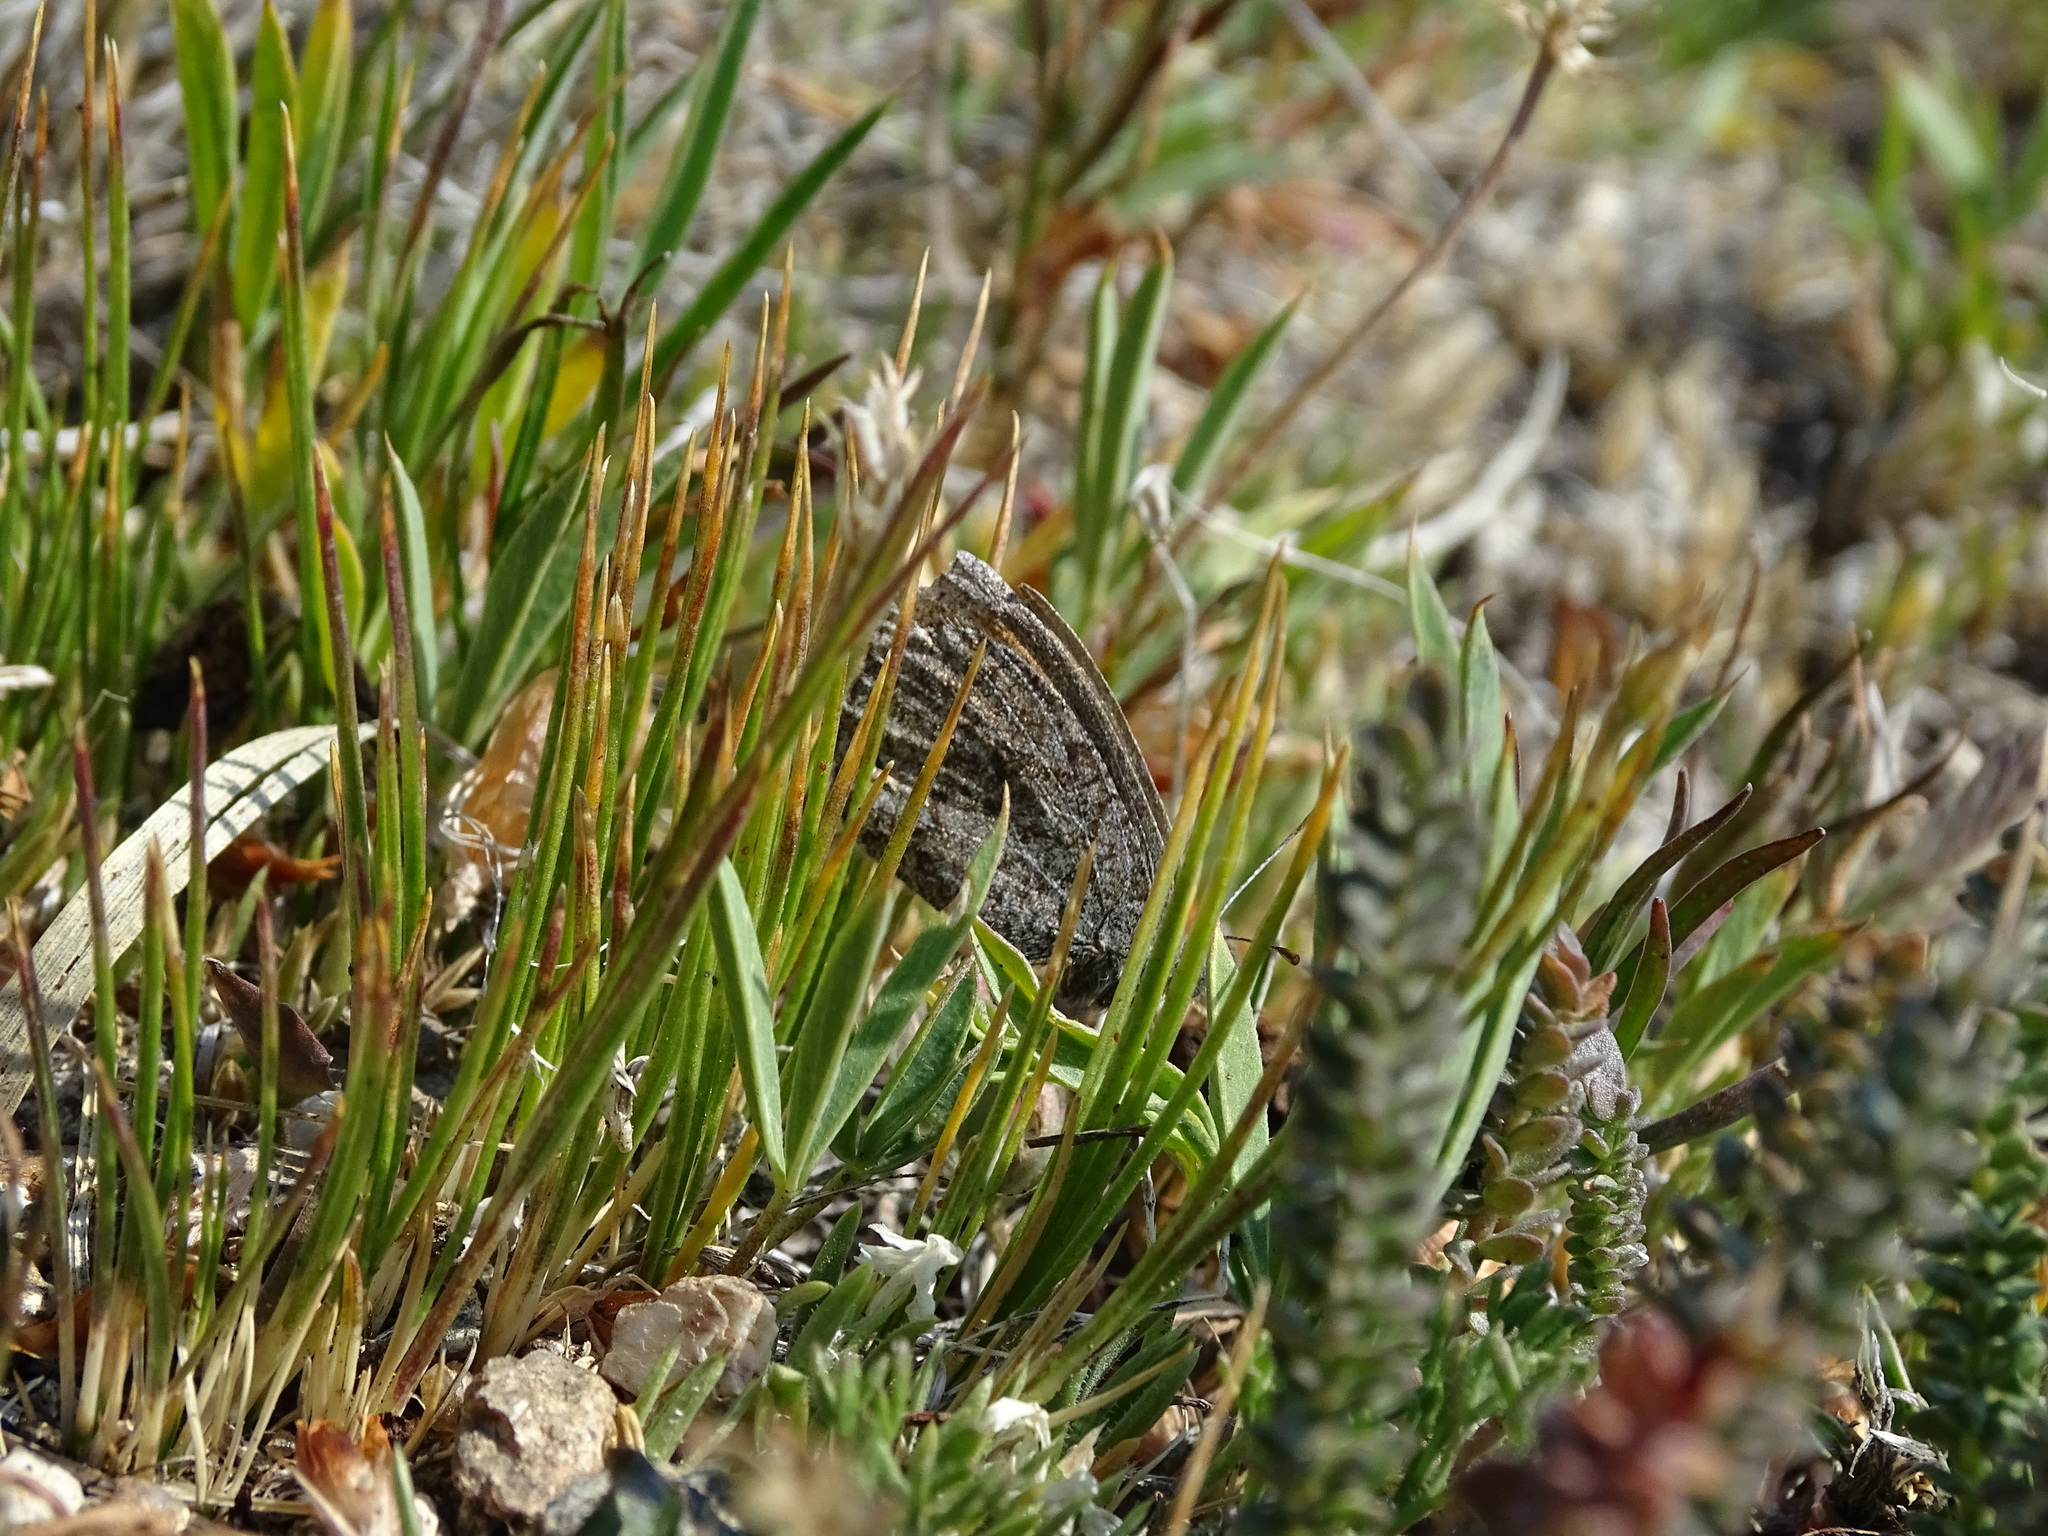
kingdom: Animalia
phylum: Arthropoda
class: Insecta
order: Lepidoptera
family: Nymphalidae
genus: Erebia
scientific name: Erebia tyndarus
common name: Swiss brassy ringlet
